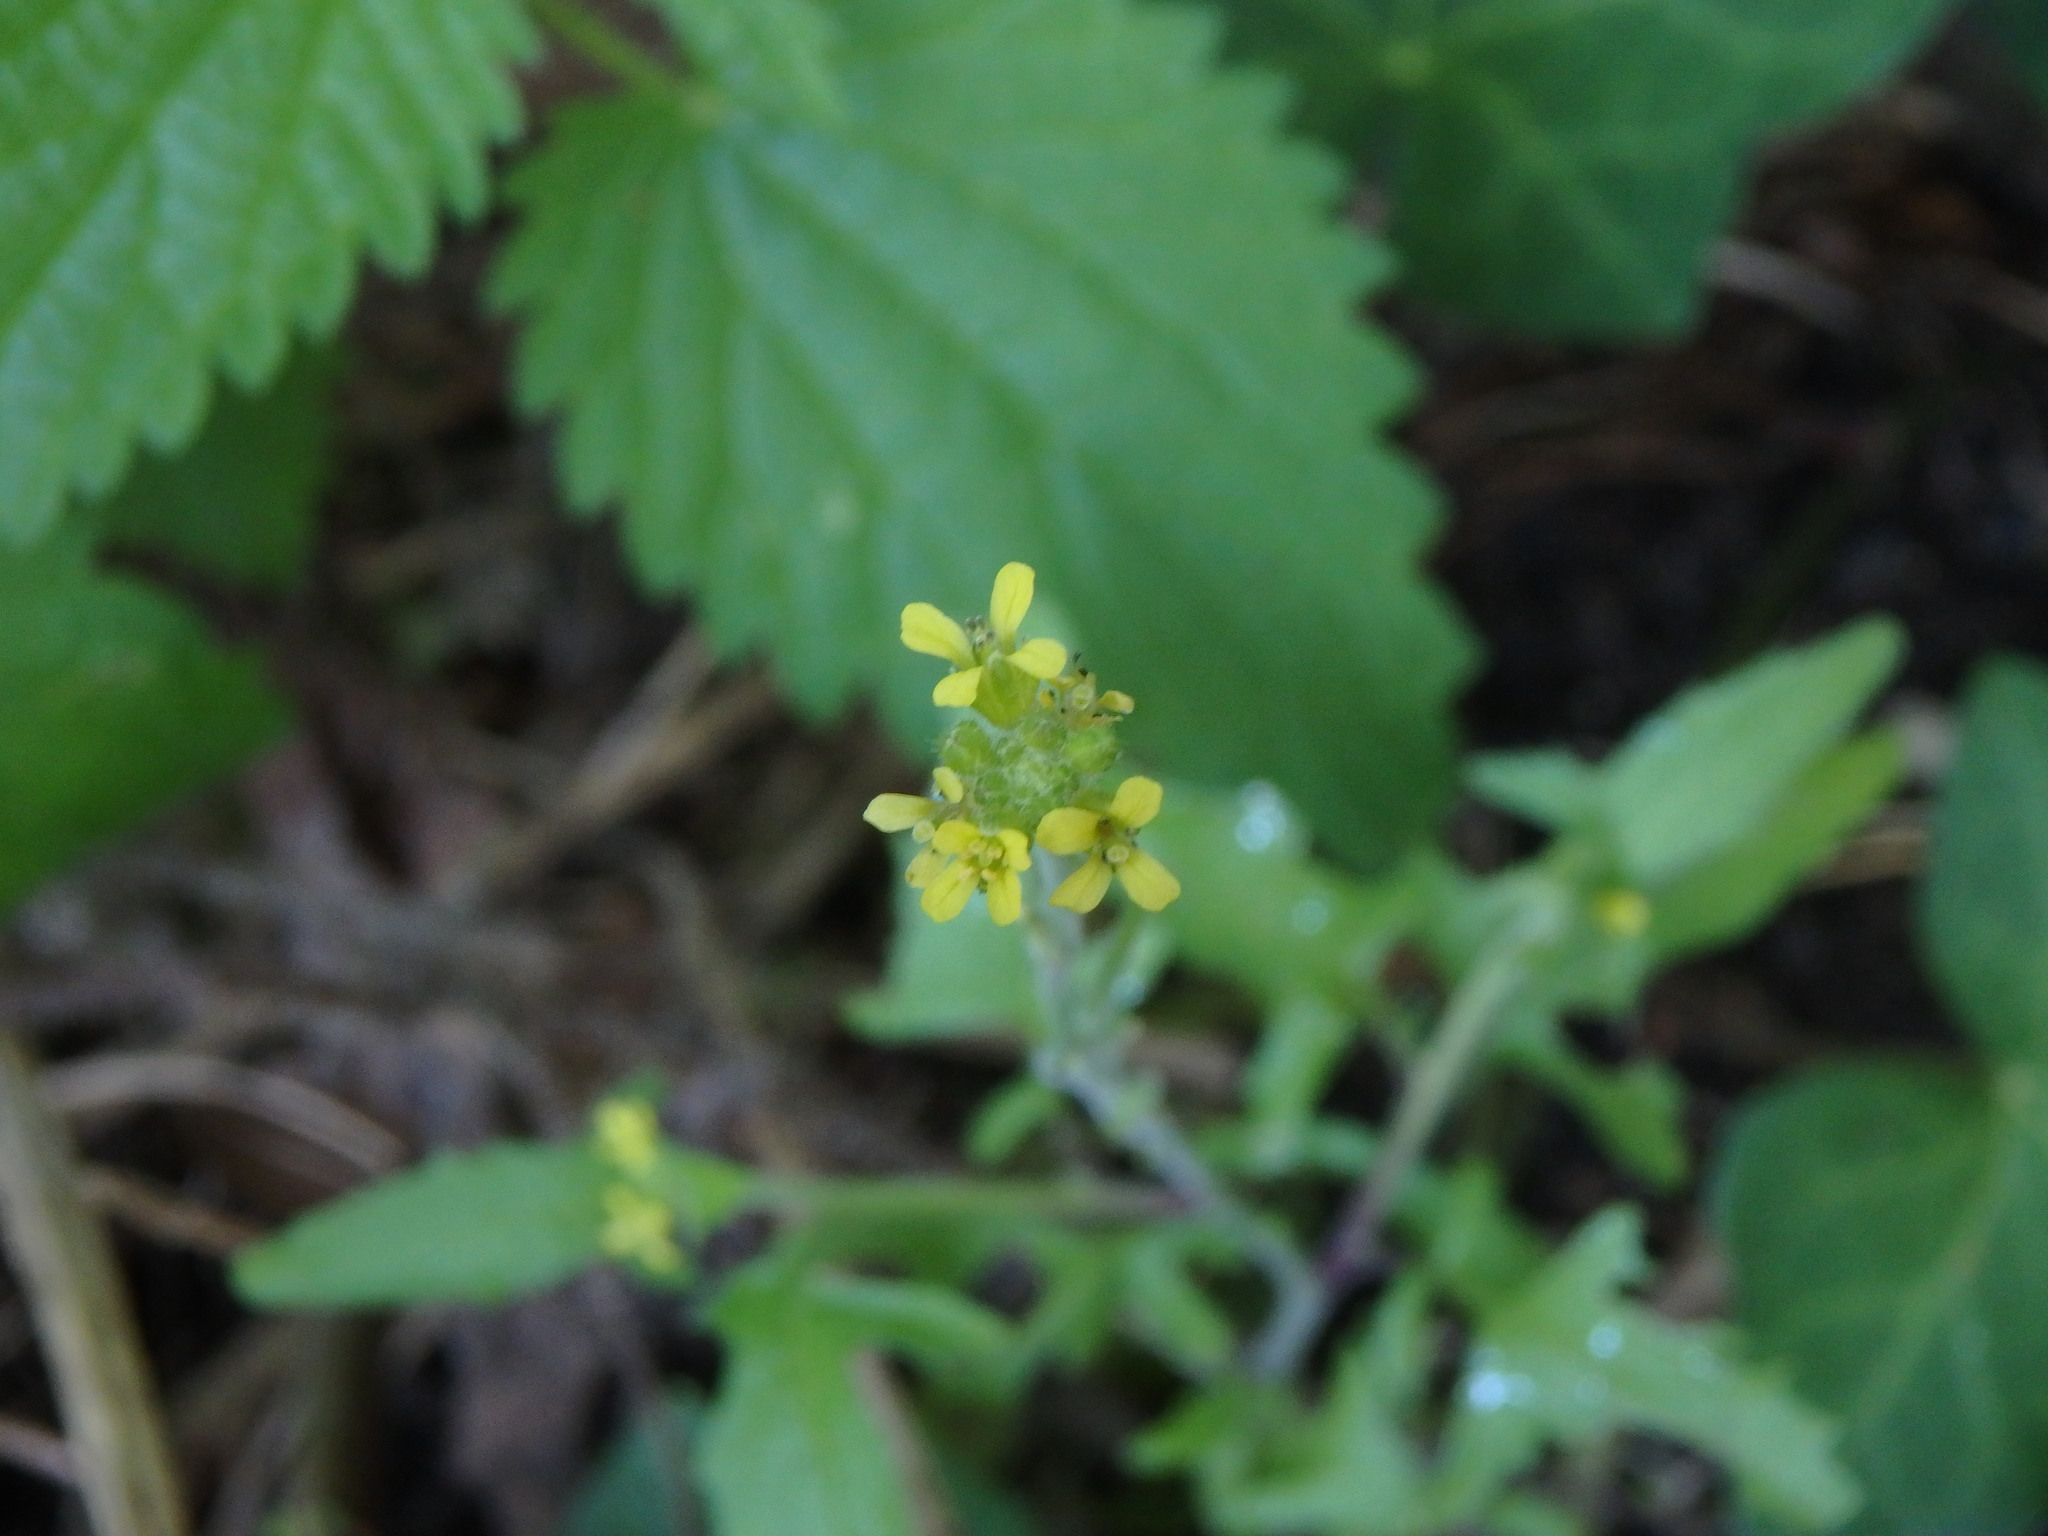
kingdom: Plantae
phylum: Tracheophyta
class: Magnoliopsida
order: Brassicales
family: Brassicaceae
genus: Sisymbrium
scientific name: Sisymbrium officinale
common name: Hedge mustard
